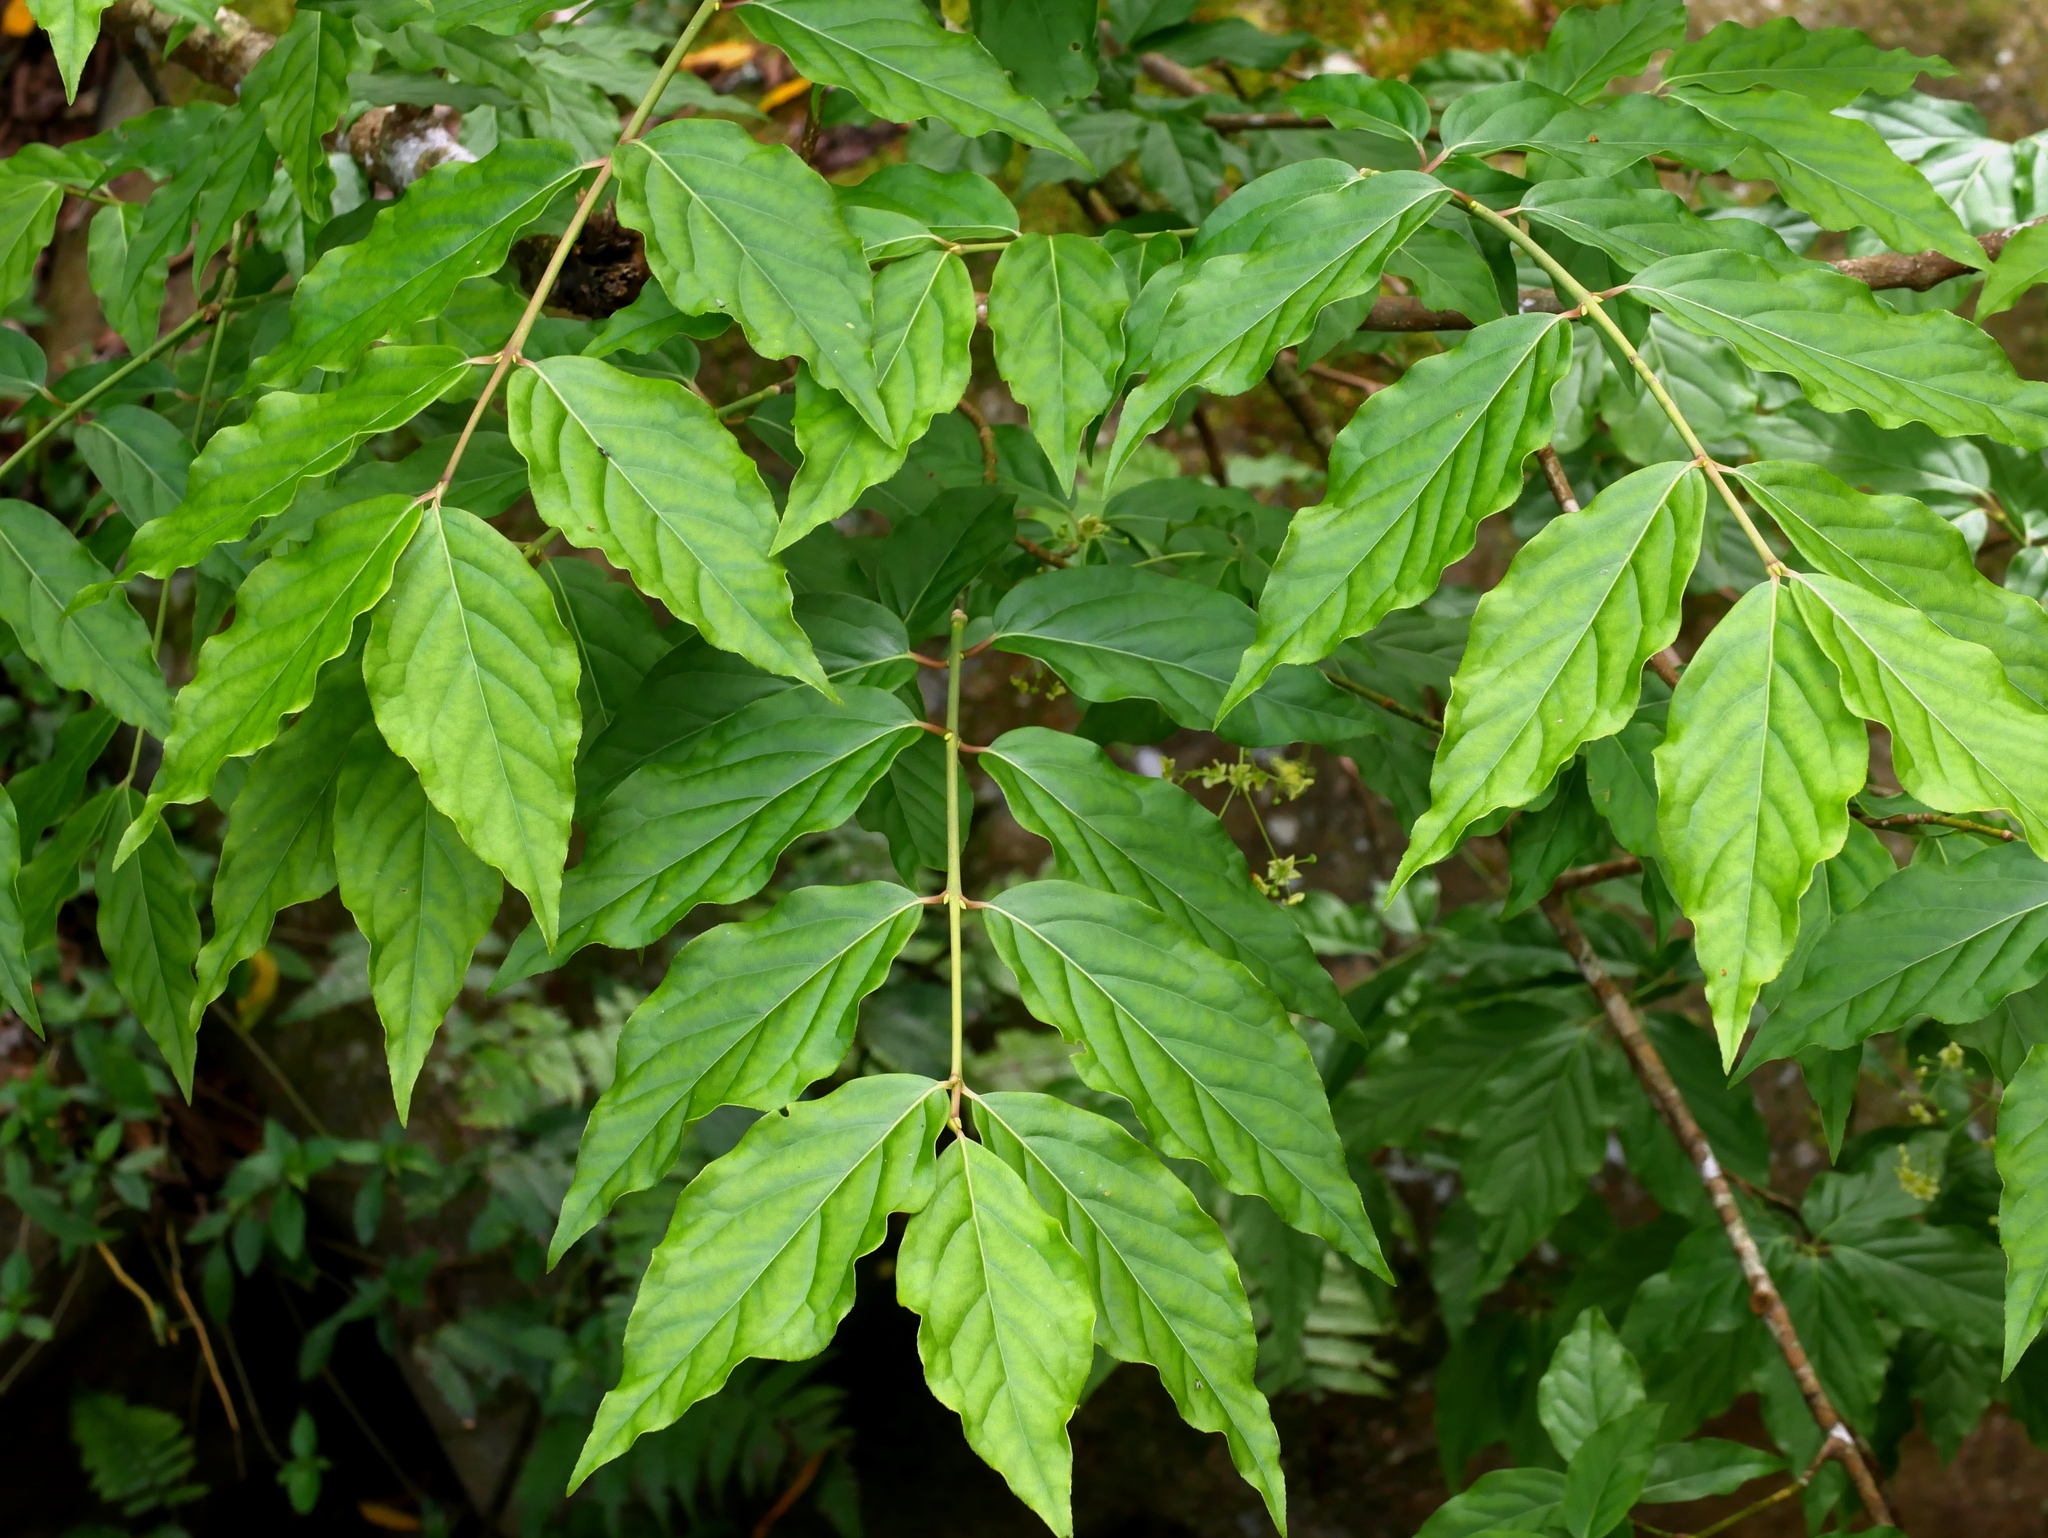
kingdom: Plantae
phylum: Tracheophyta
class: Magnoliopsida
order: Celastrales
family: Celastraceae
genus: Euonymus
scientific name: Euonymus oxyphyllus
